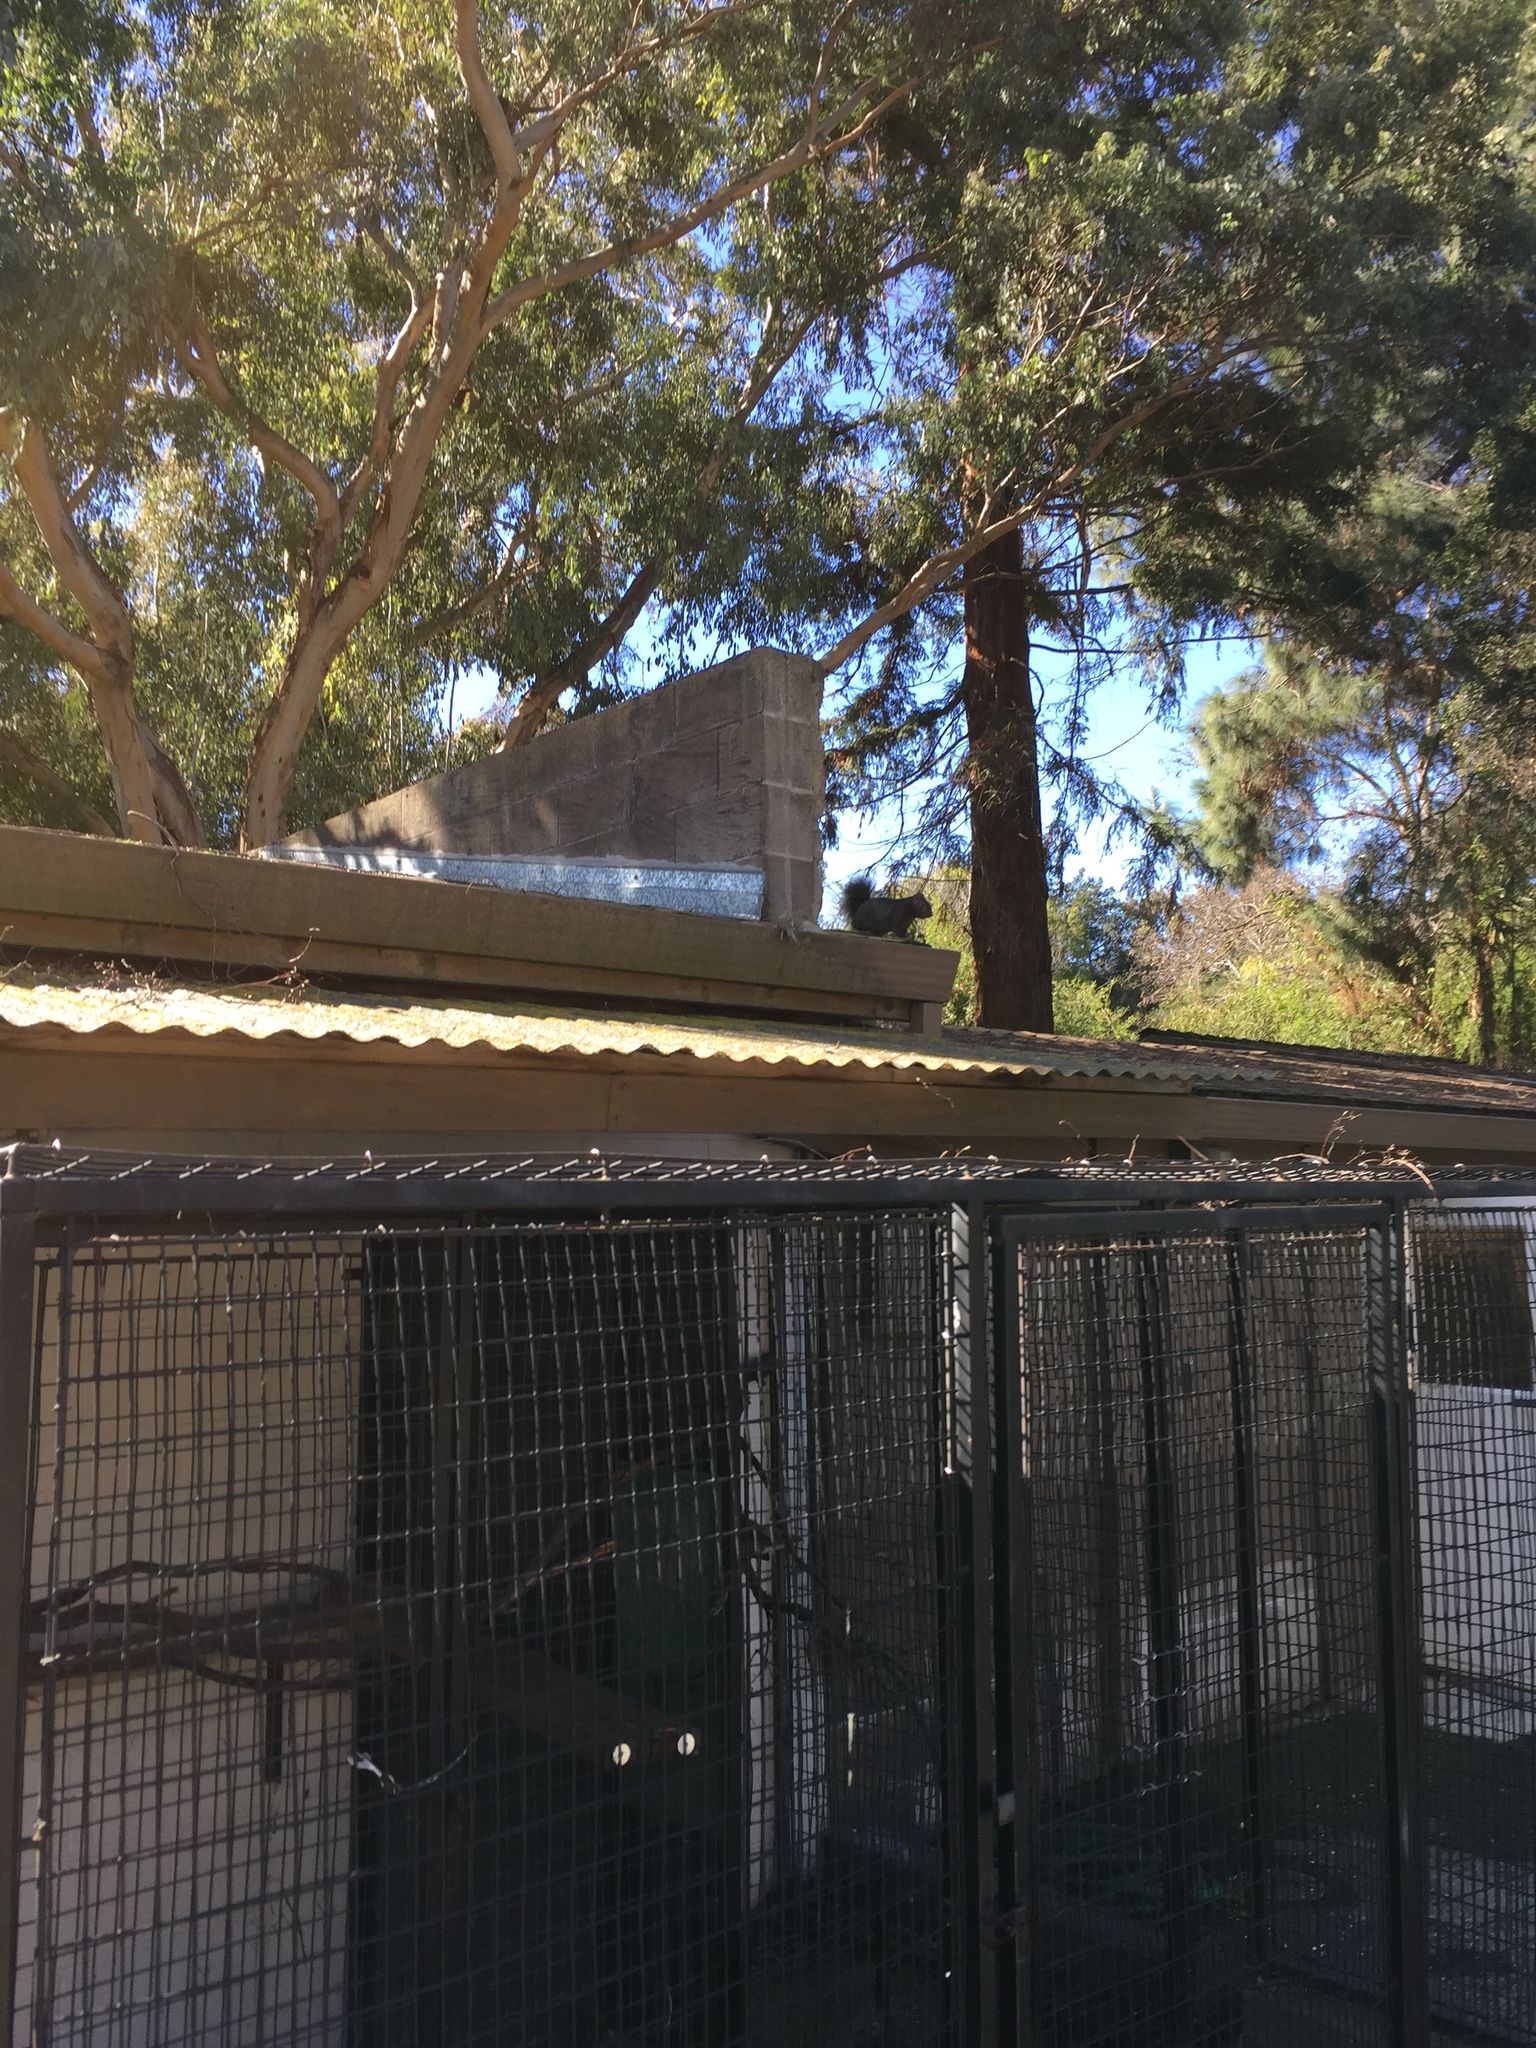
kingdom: Animalia
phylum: Chordata
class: Mammalia
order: Rodentia
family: Sciuridae
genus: Sciurus
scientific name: Sciurus carolinensis
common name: Eastern gray squirrel
